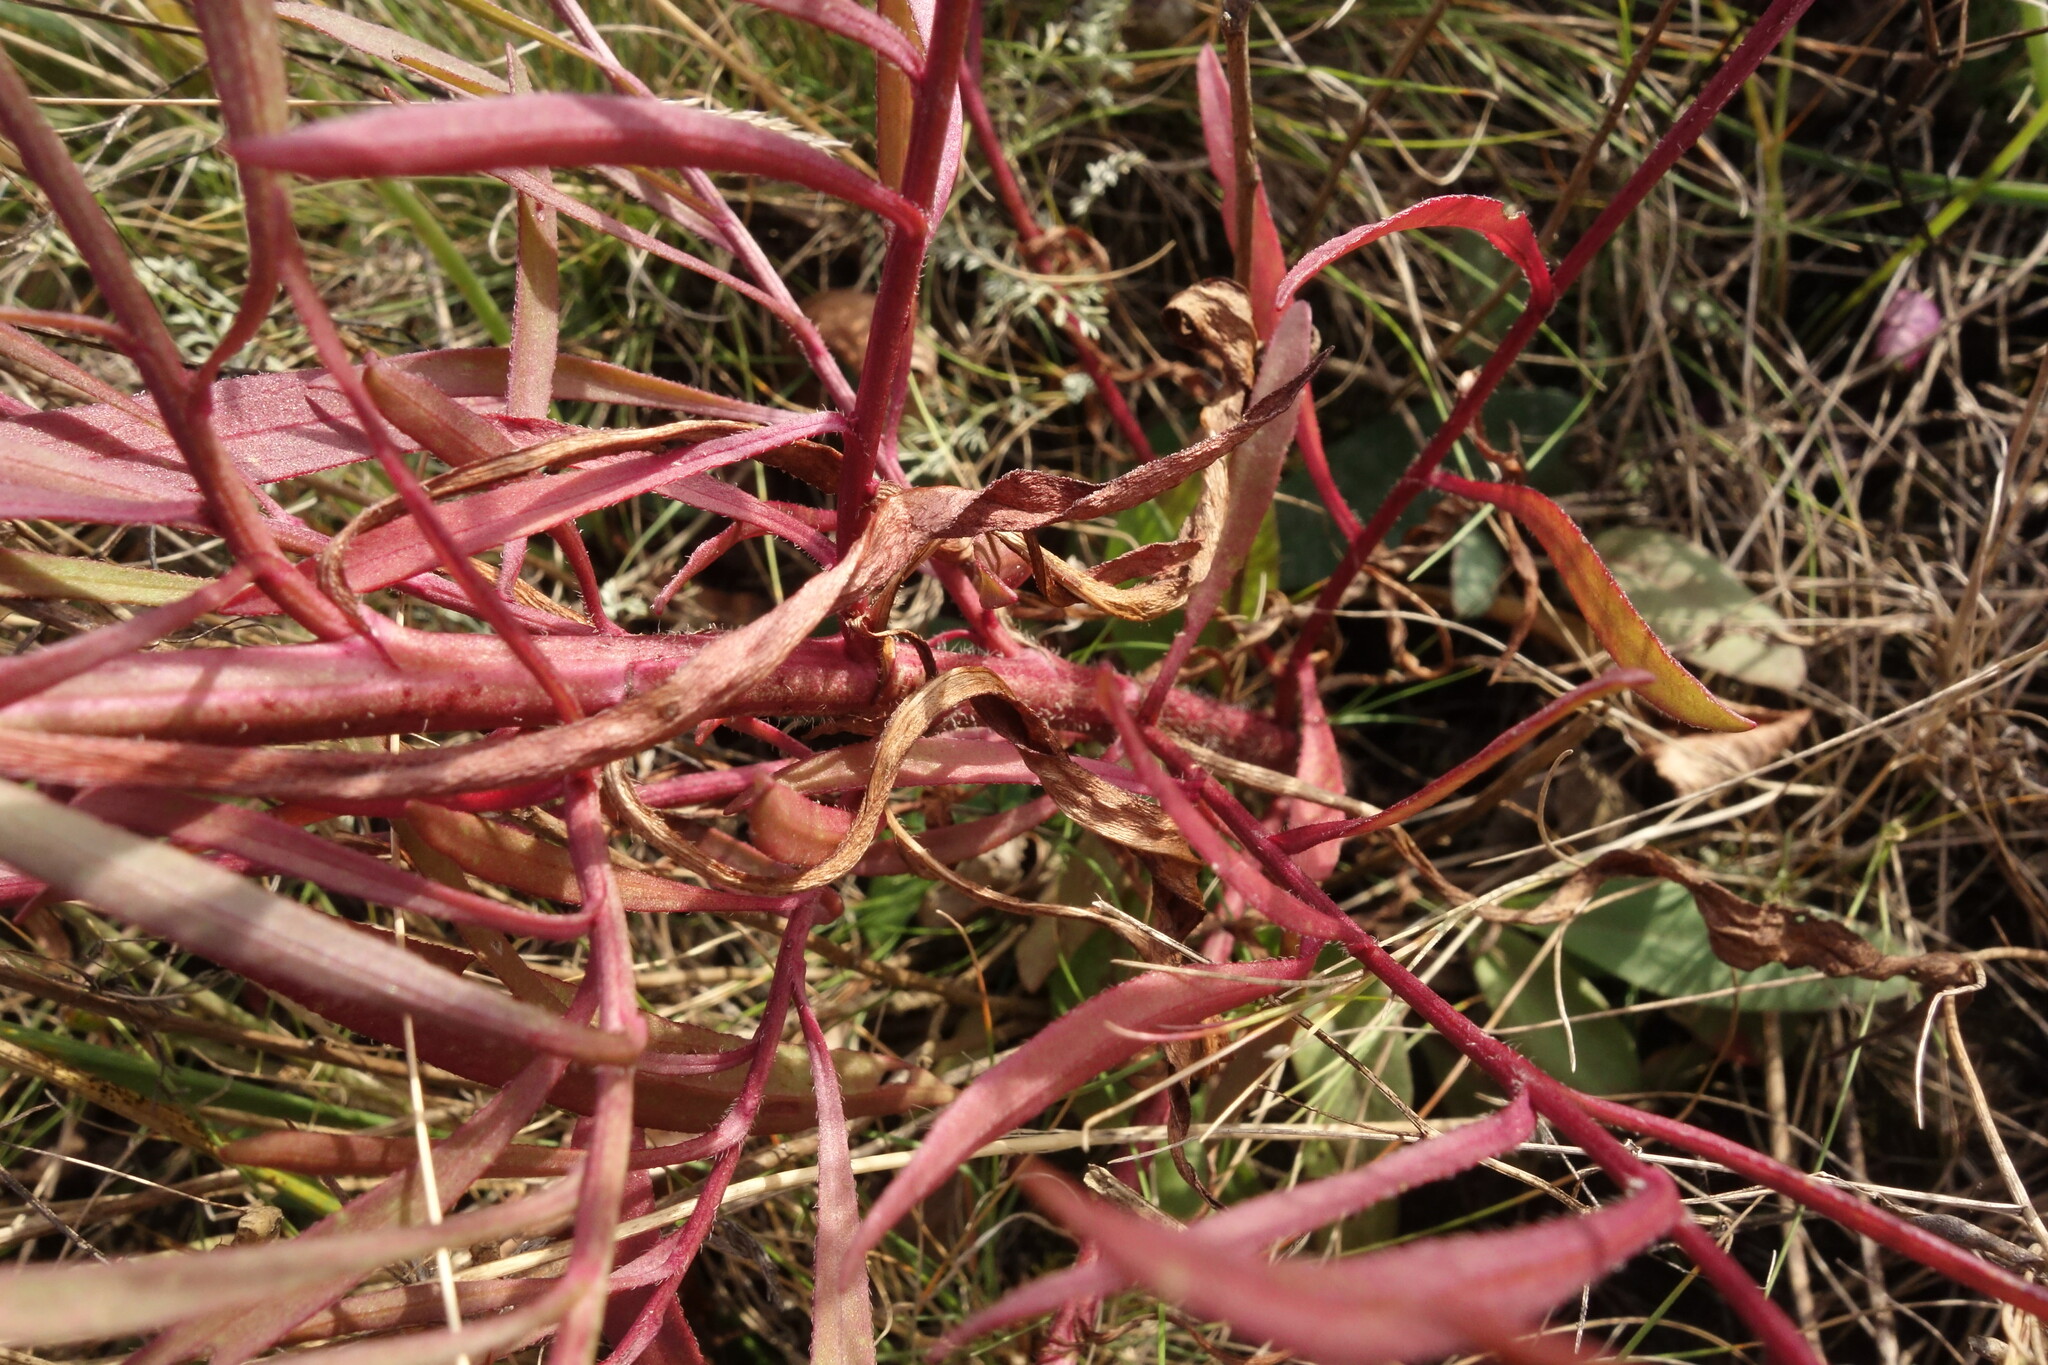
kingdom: Plantae
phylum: Tracheophyta
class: Magnoliopsida
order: Asterales
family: Asteraceae
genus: Tripolium
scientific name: Tripolium pannonicum
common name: Sea aster
